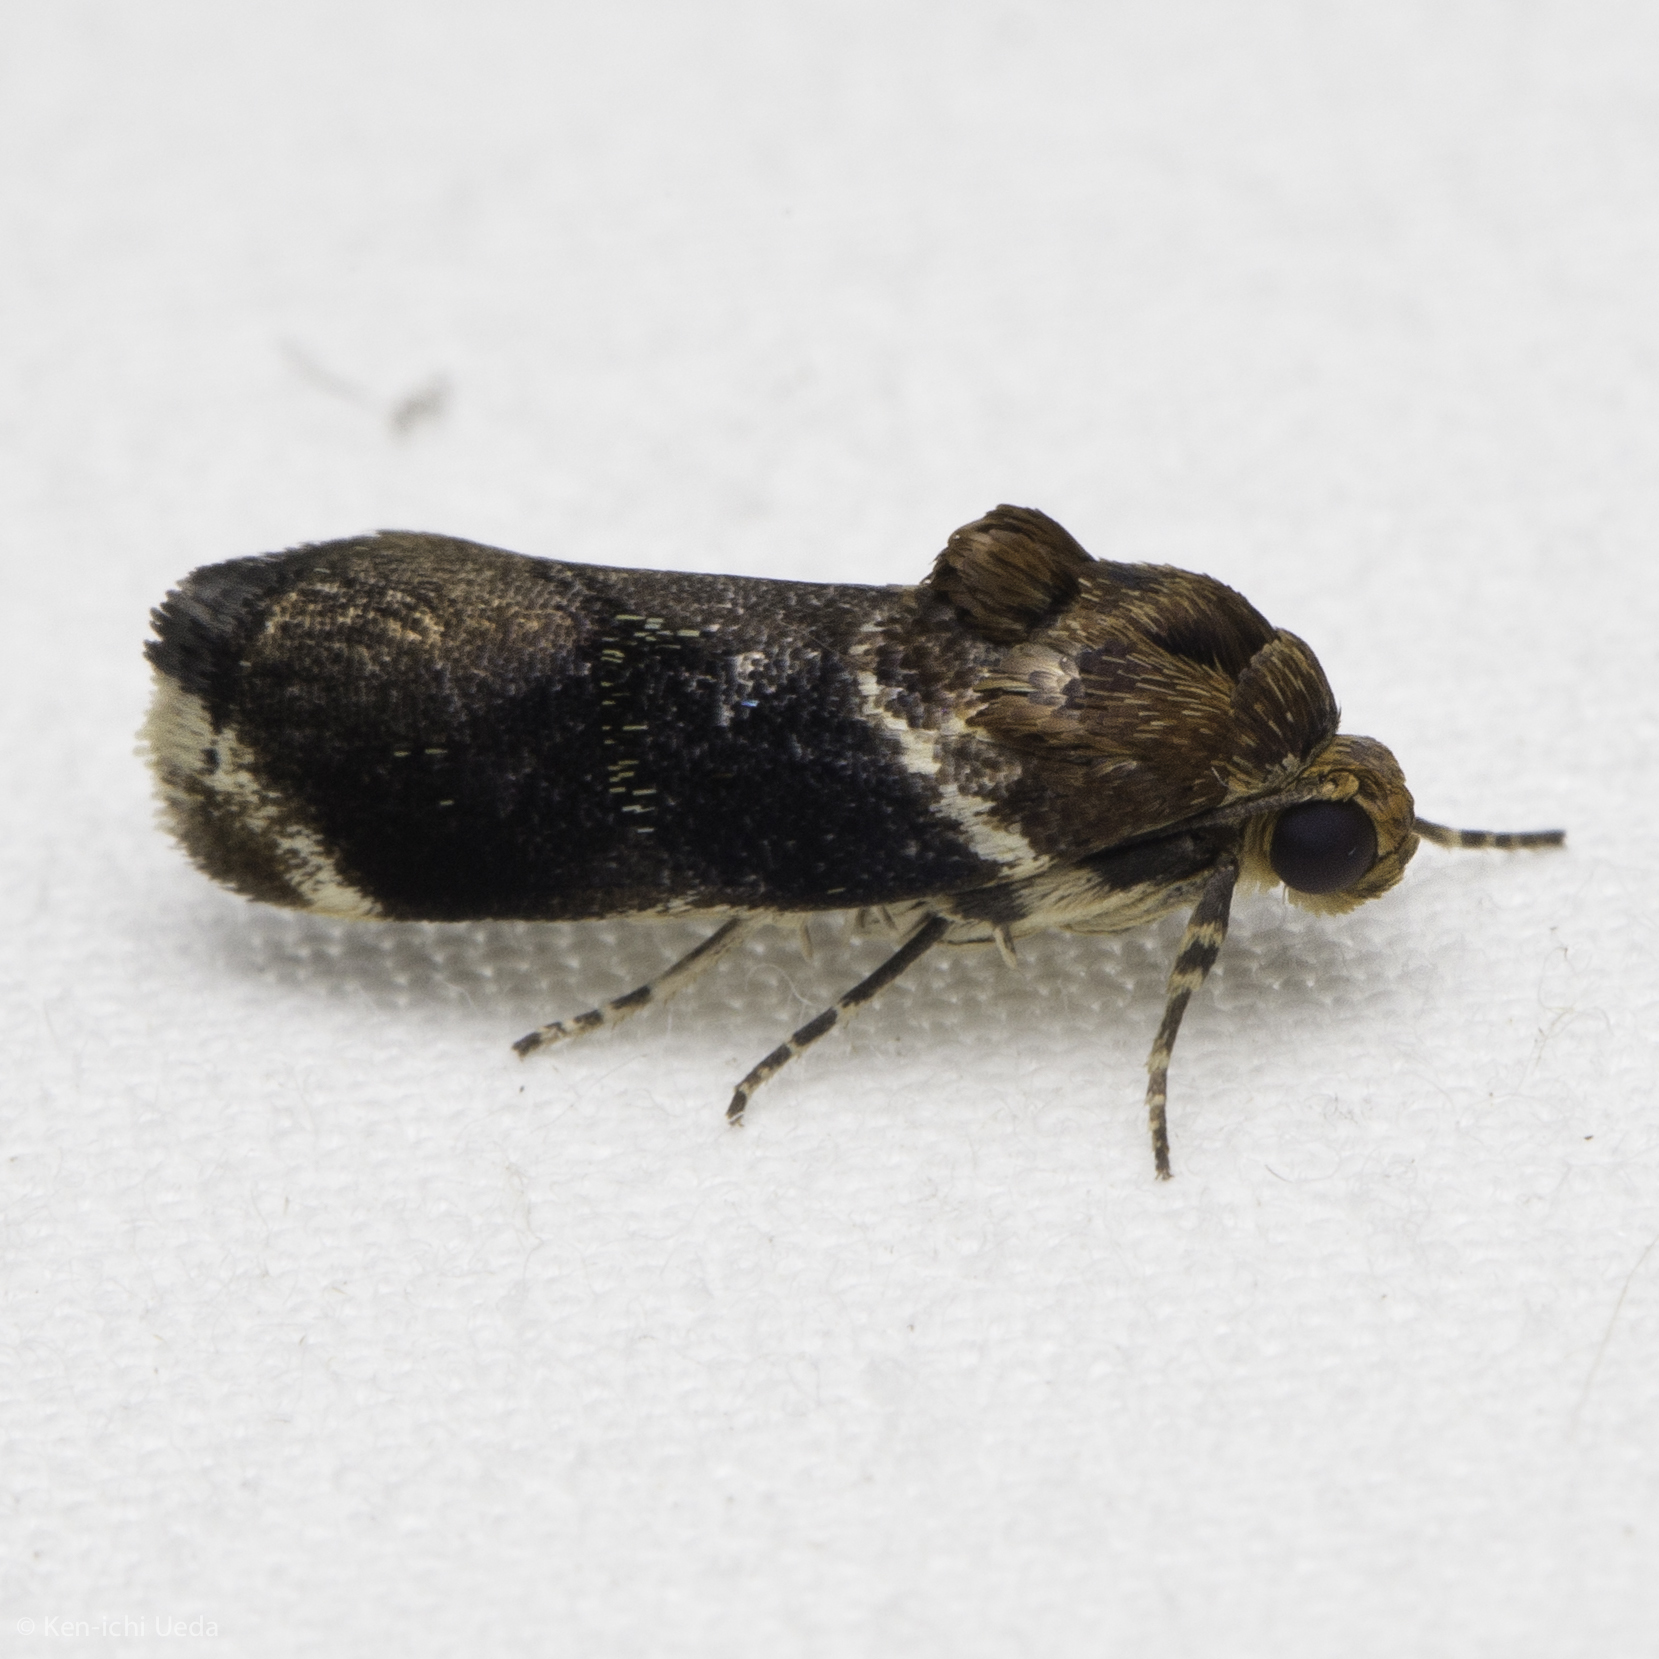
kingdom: Animalia
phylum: Arthropoda
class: Insecta
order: Lepidoptera
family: Noctuidae
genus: Spragueia
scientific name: Spragueia apicalis
